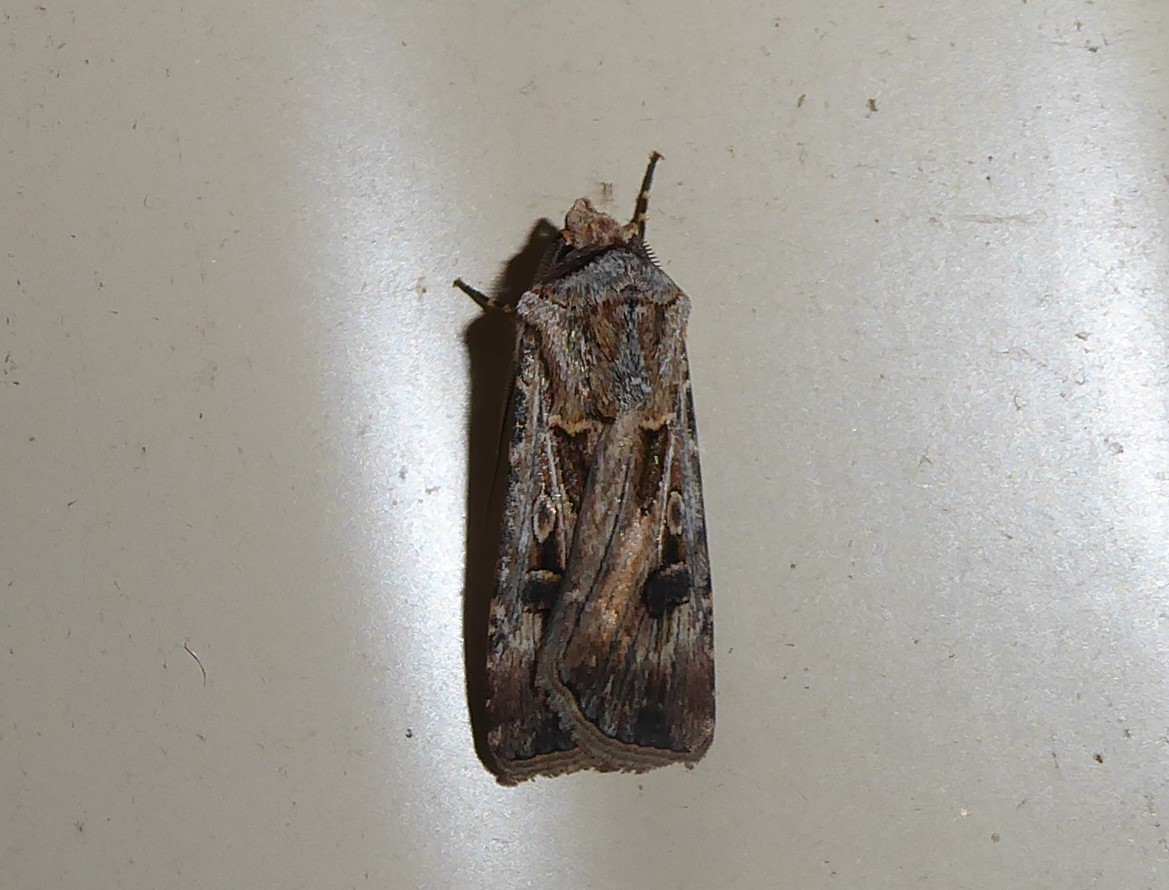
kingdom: Animalia
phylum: Arthropoda
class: Insecta
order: Lepidoptera
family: Noctuidae
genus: Agrotis
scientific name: Agrotis munda
